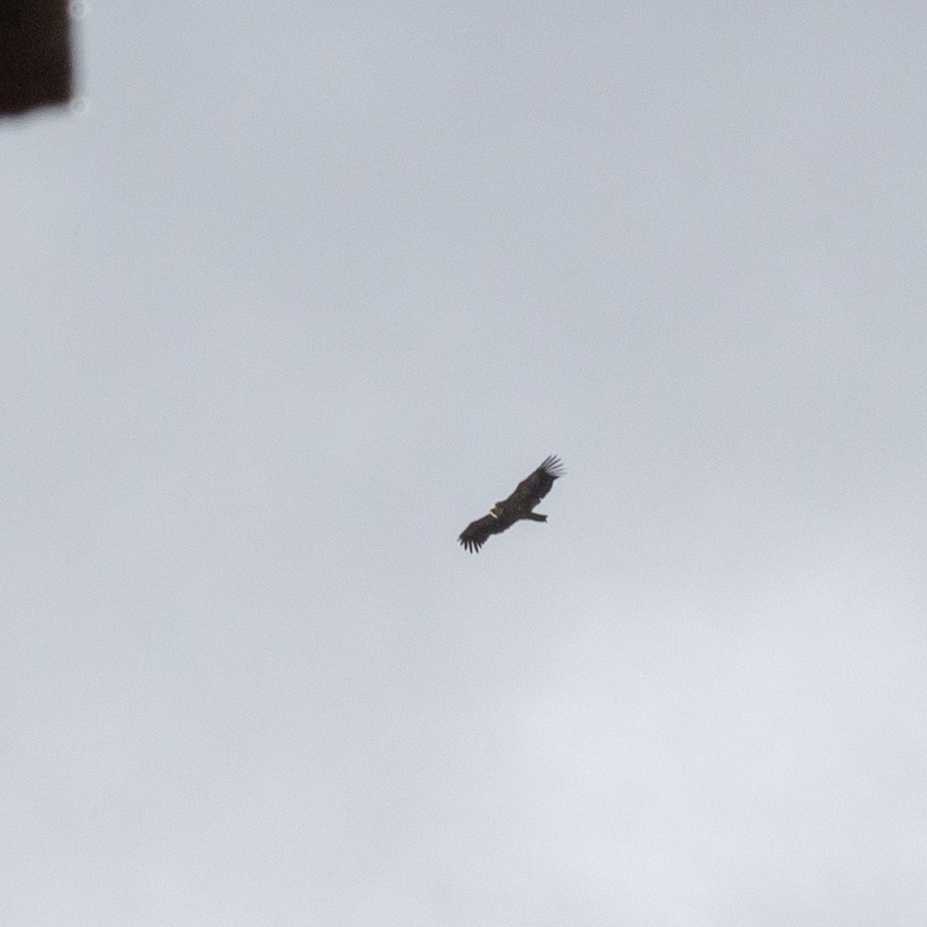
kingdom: Animalia
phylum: Chordata
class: Aves
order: Accipitriformes
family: Accipitridae
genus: Gyps
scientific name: Gyps fulvus
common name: Griffon vulture
